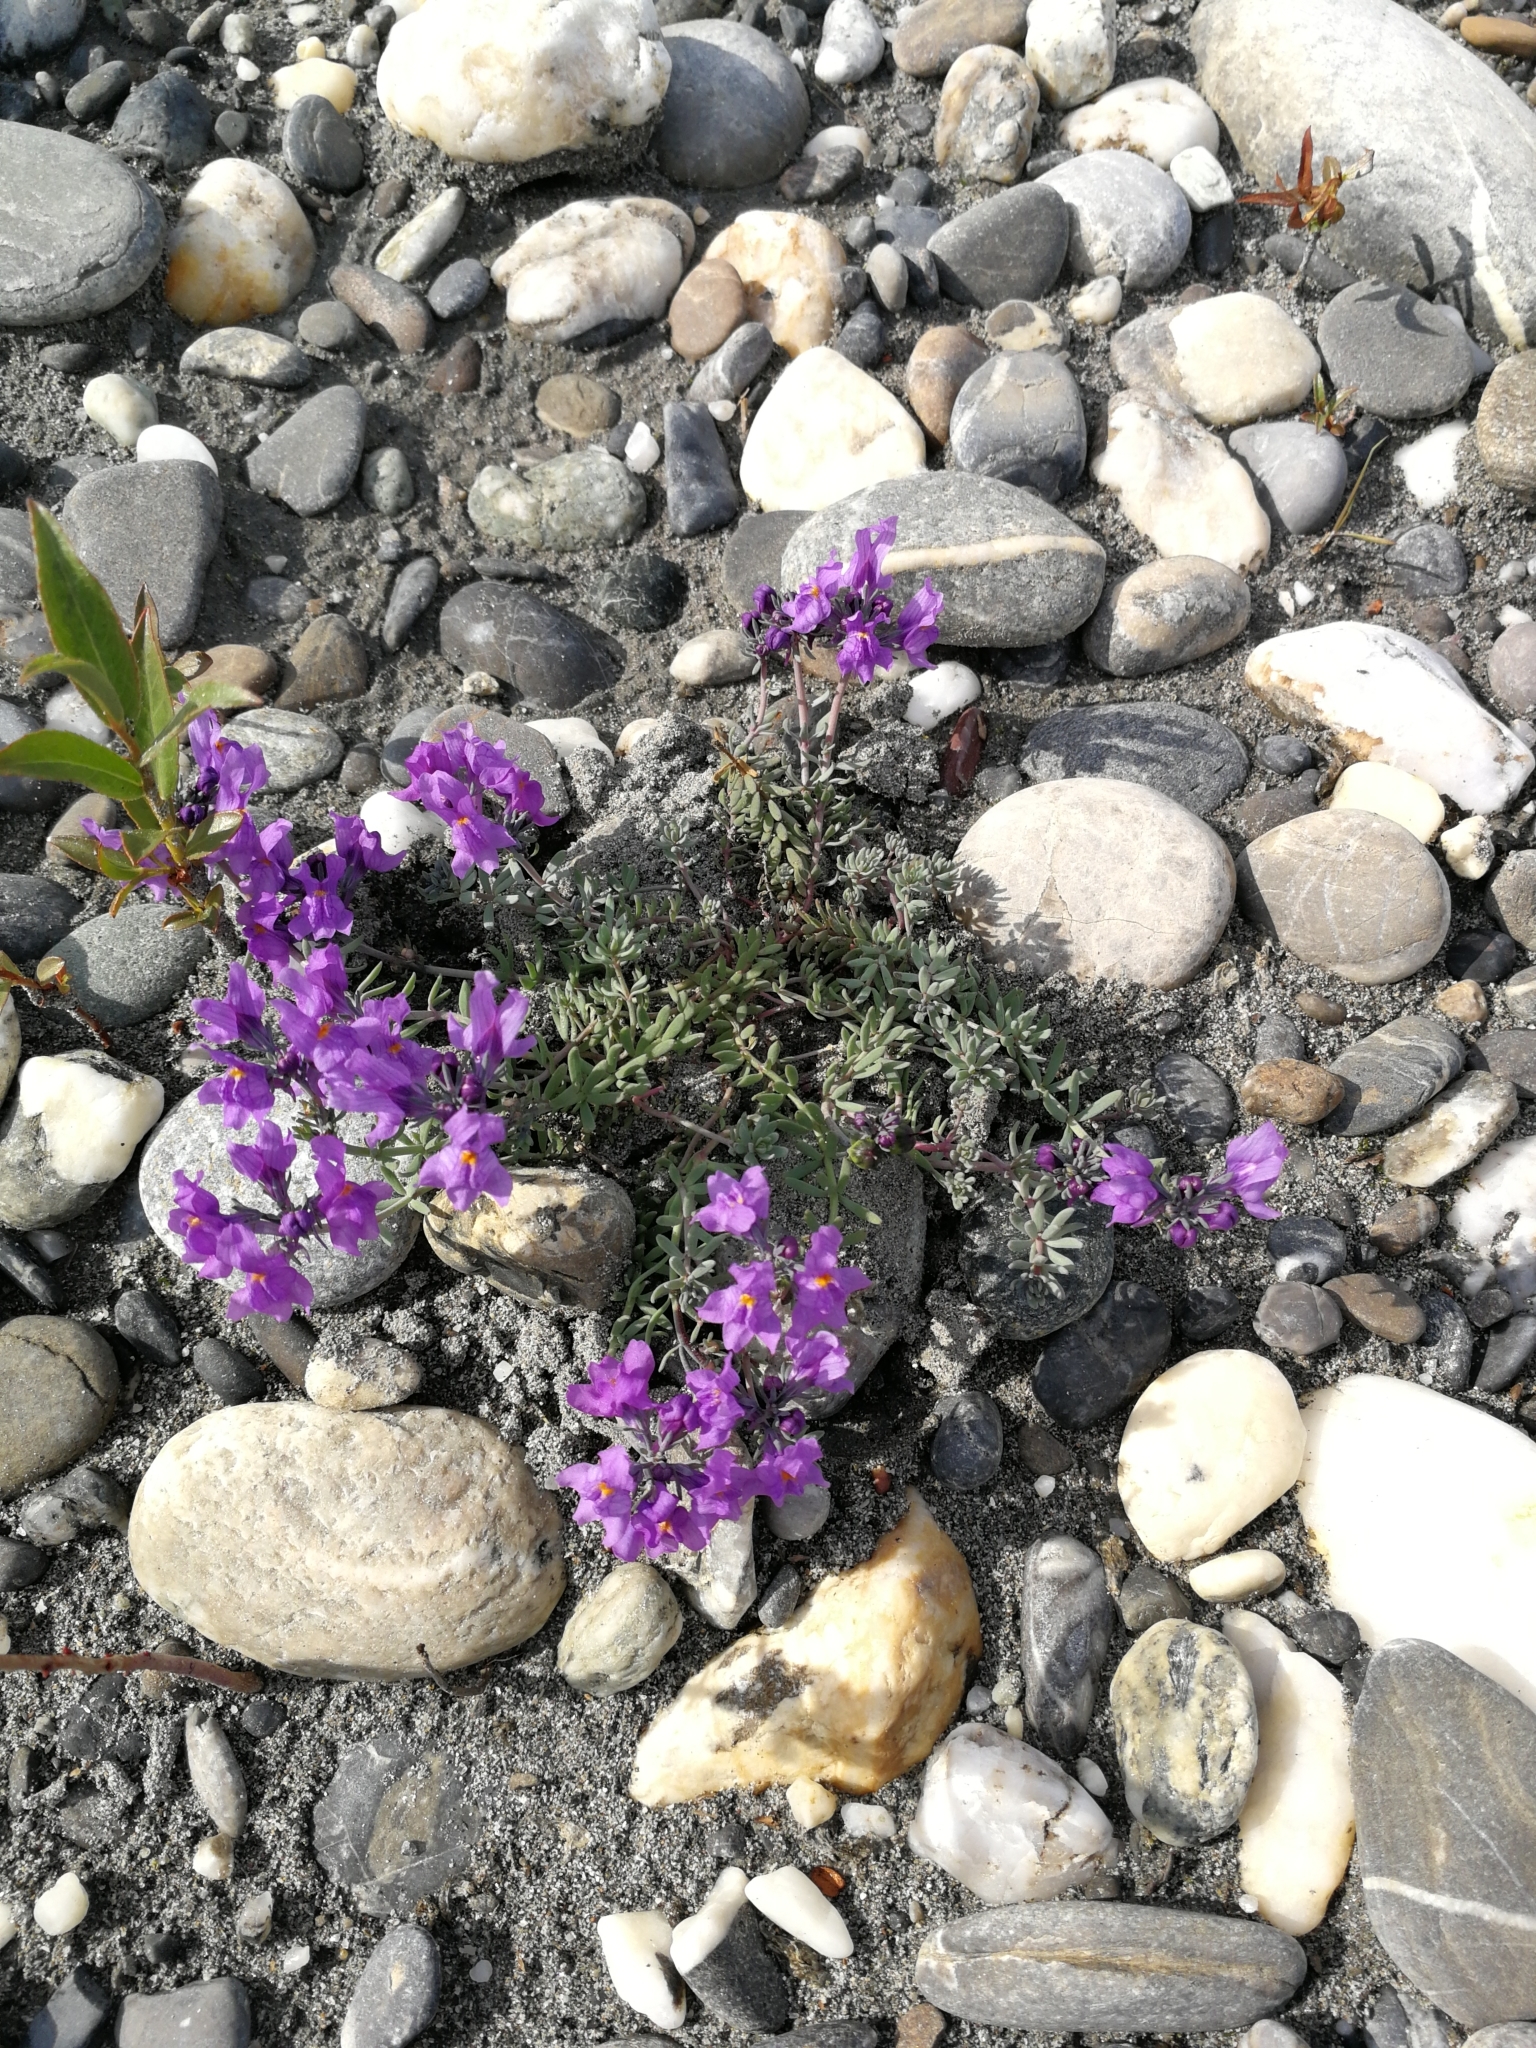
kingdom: Plantae
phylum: Tracheophyta
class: Magnoliopsida
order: Lamiales
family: Plantaginaceae
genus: Linaria
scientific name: Linaria alpina
